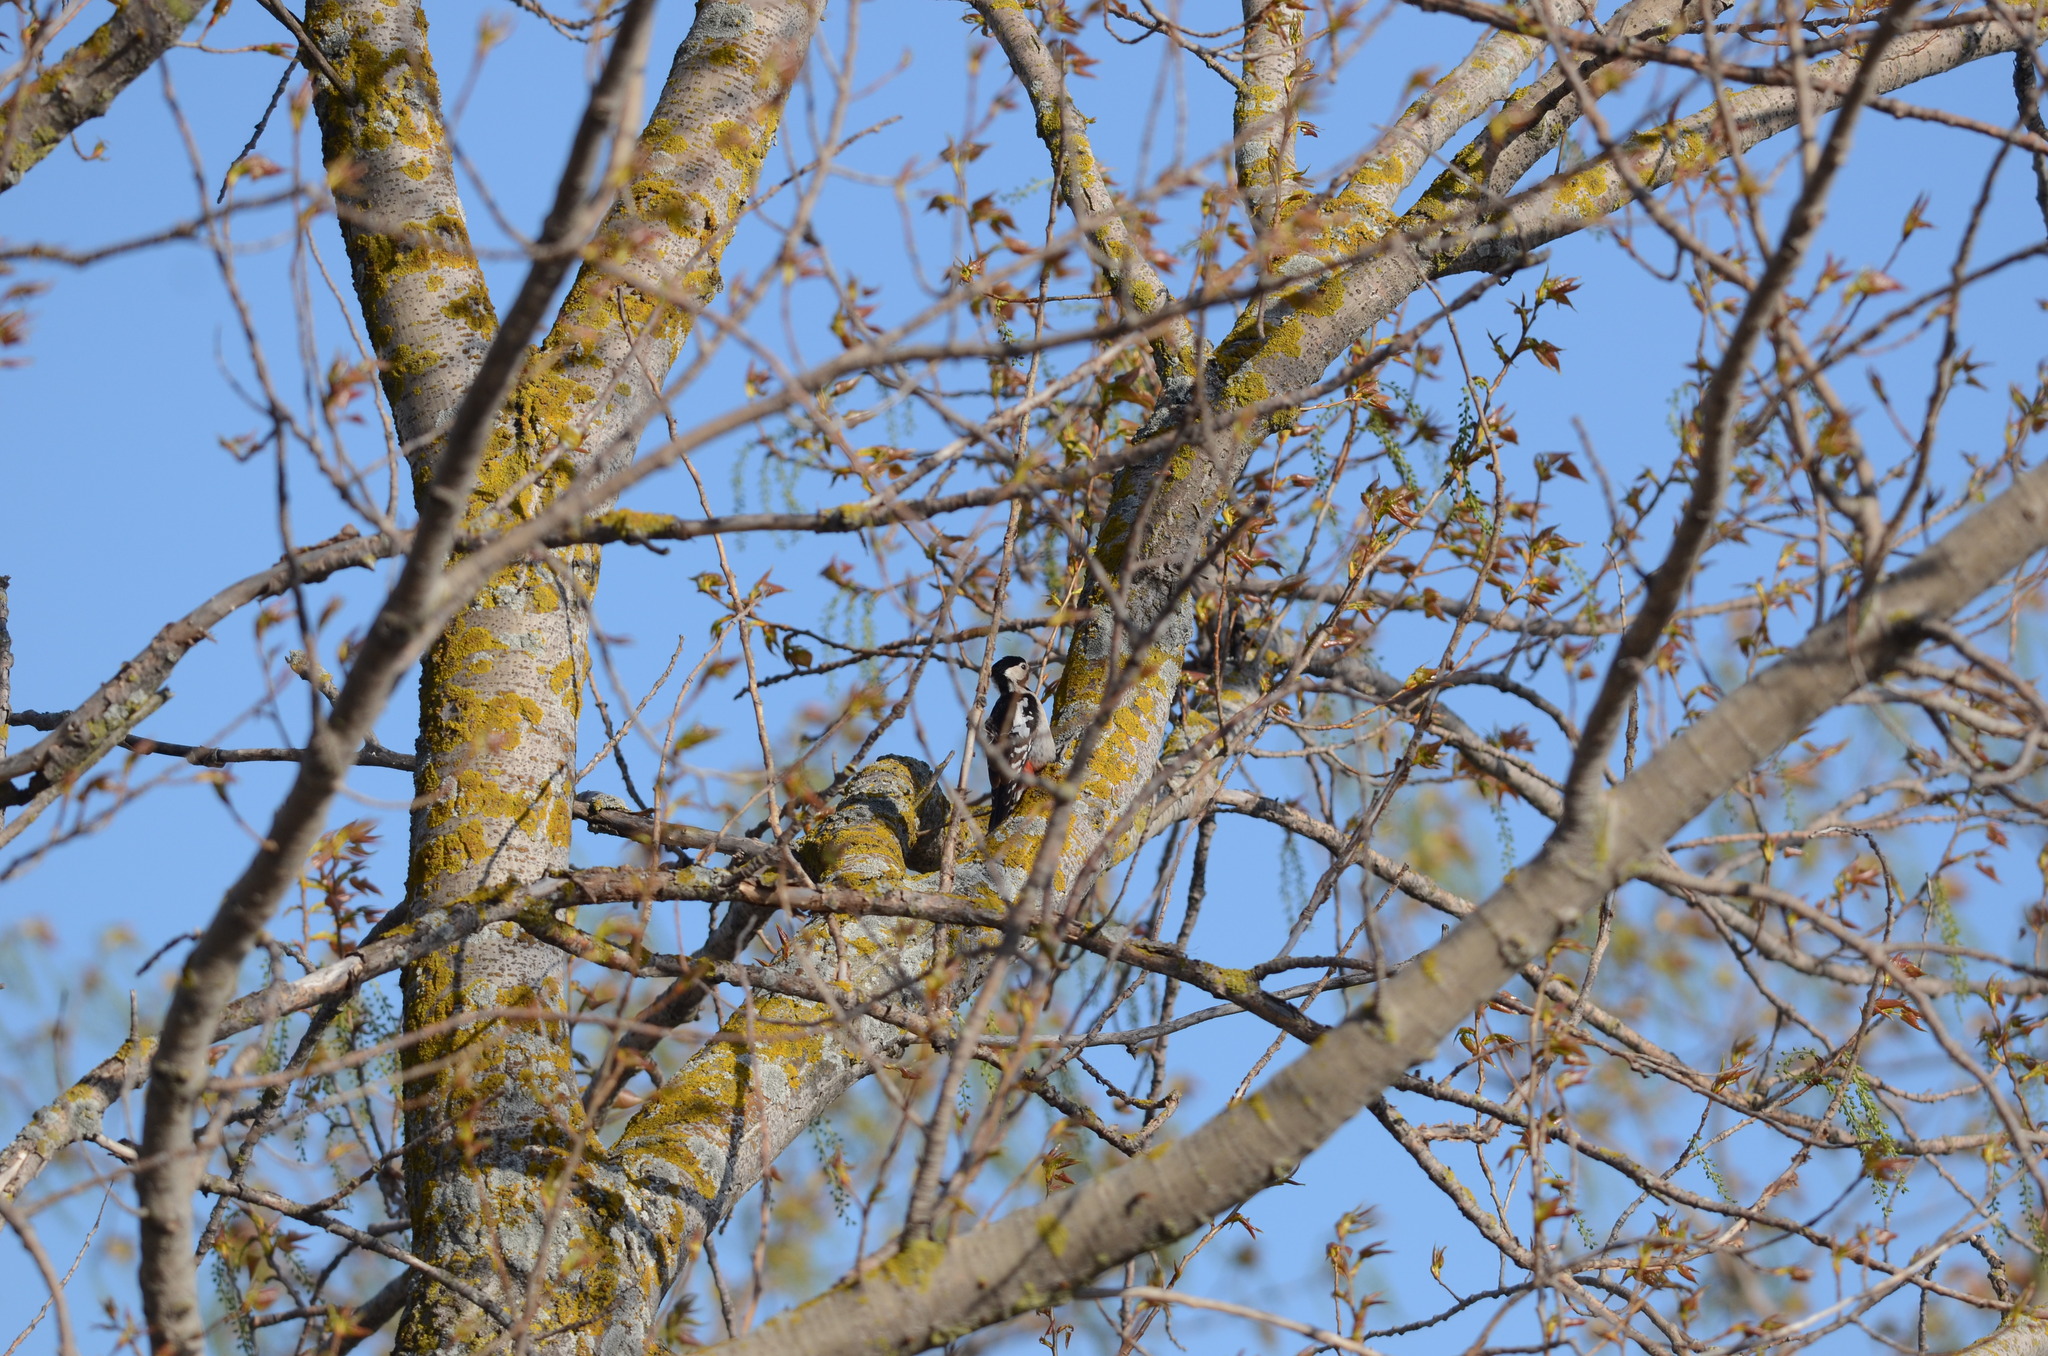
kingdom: Animalia
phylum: Chordata
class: Aves
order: Piciformes
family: Picidae
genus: Dendrocopos
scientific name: Dendrocopos syriacus
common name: Syrian woodpecker
